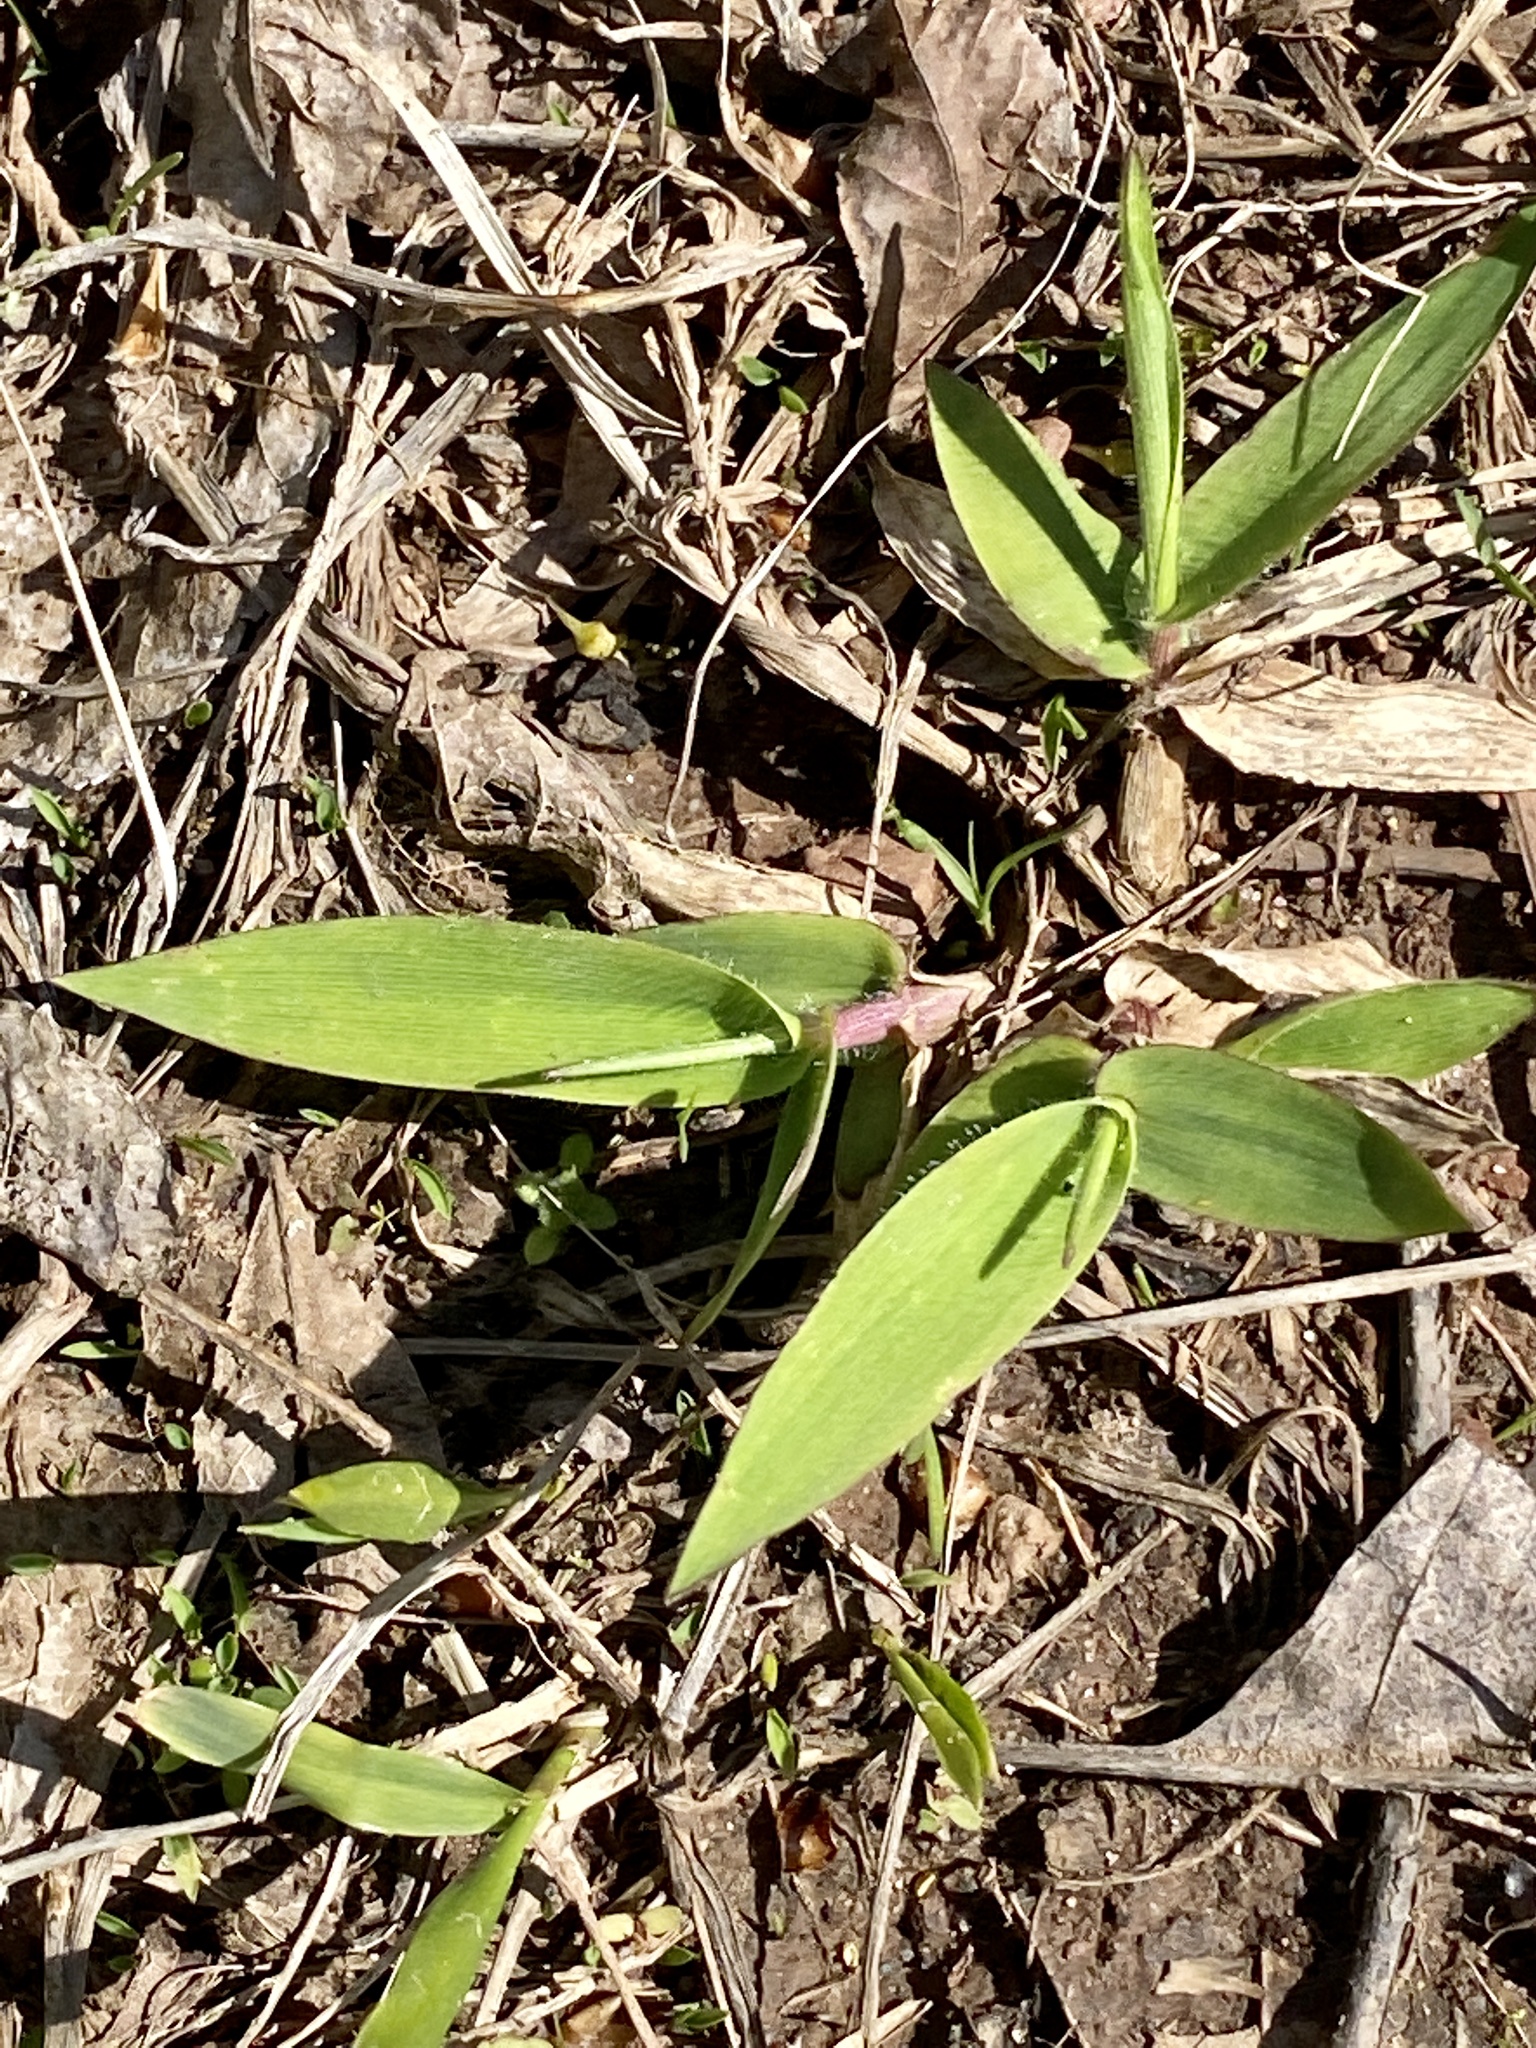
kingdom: Plantae
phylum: Tracheophyta
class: Liliopsida
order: Poales
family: Poaceae
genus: Dichanthelium
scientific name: Dichanthelium clandestinum
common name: Deer-tongue grass
